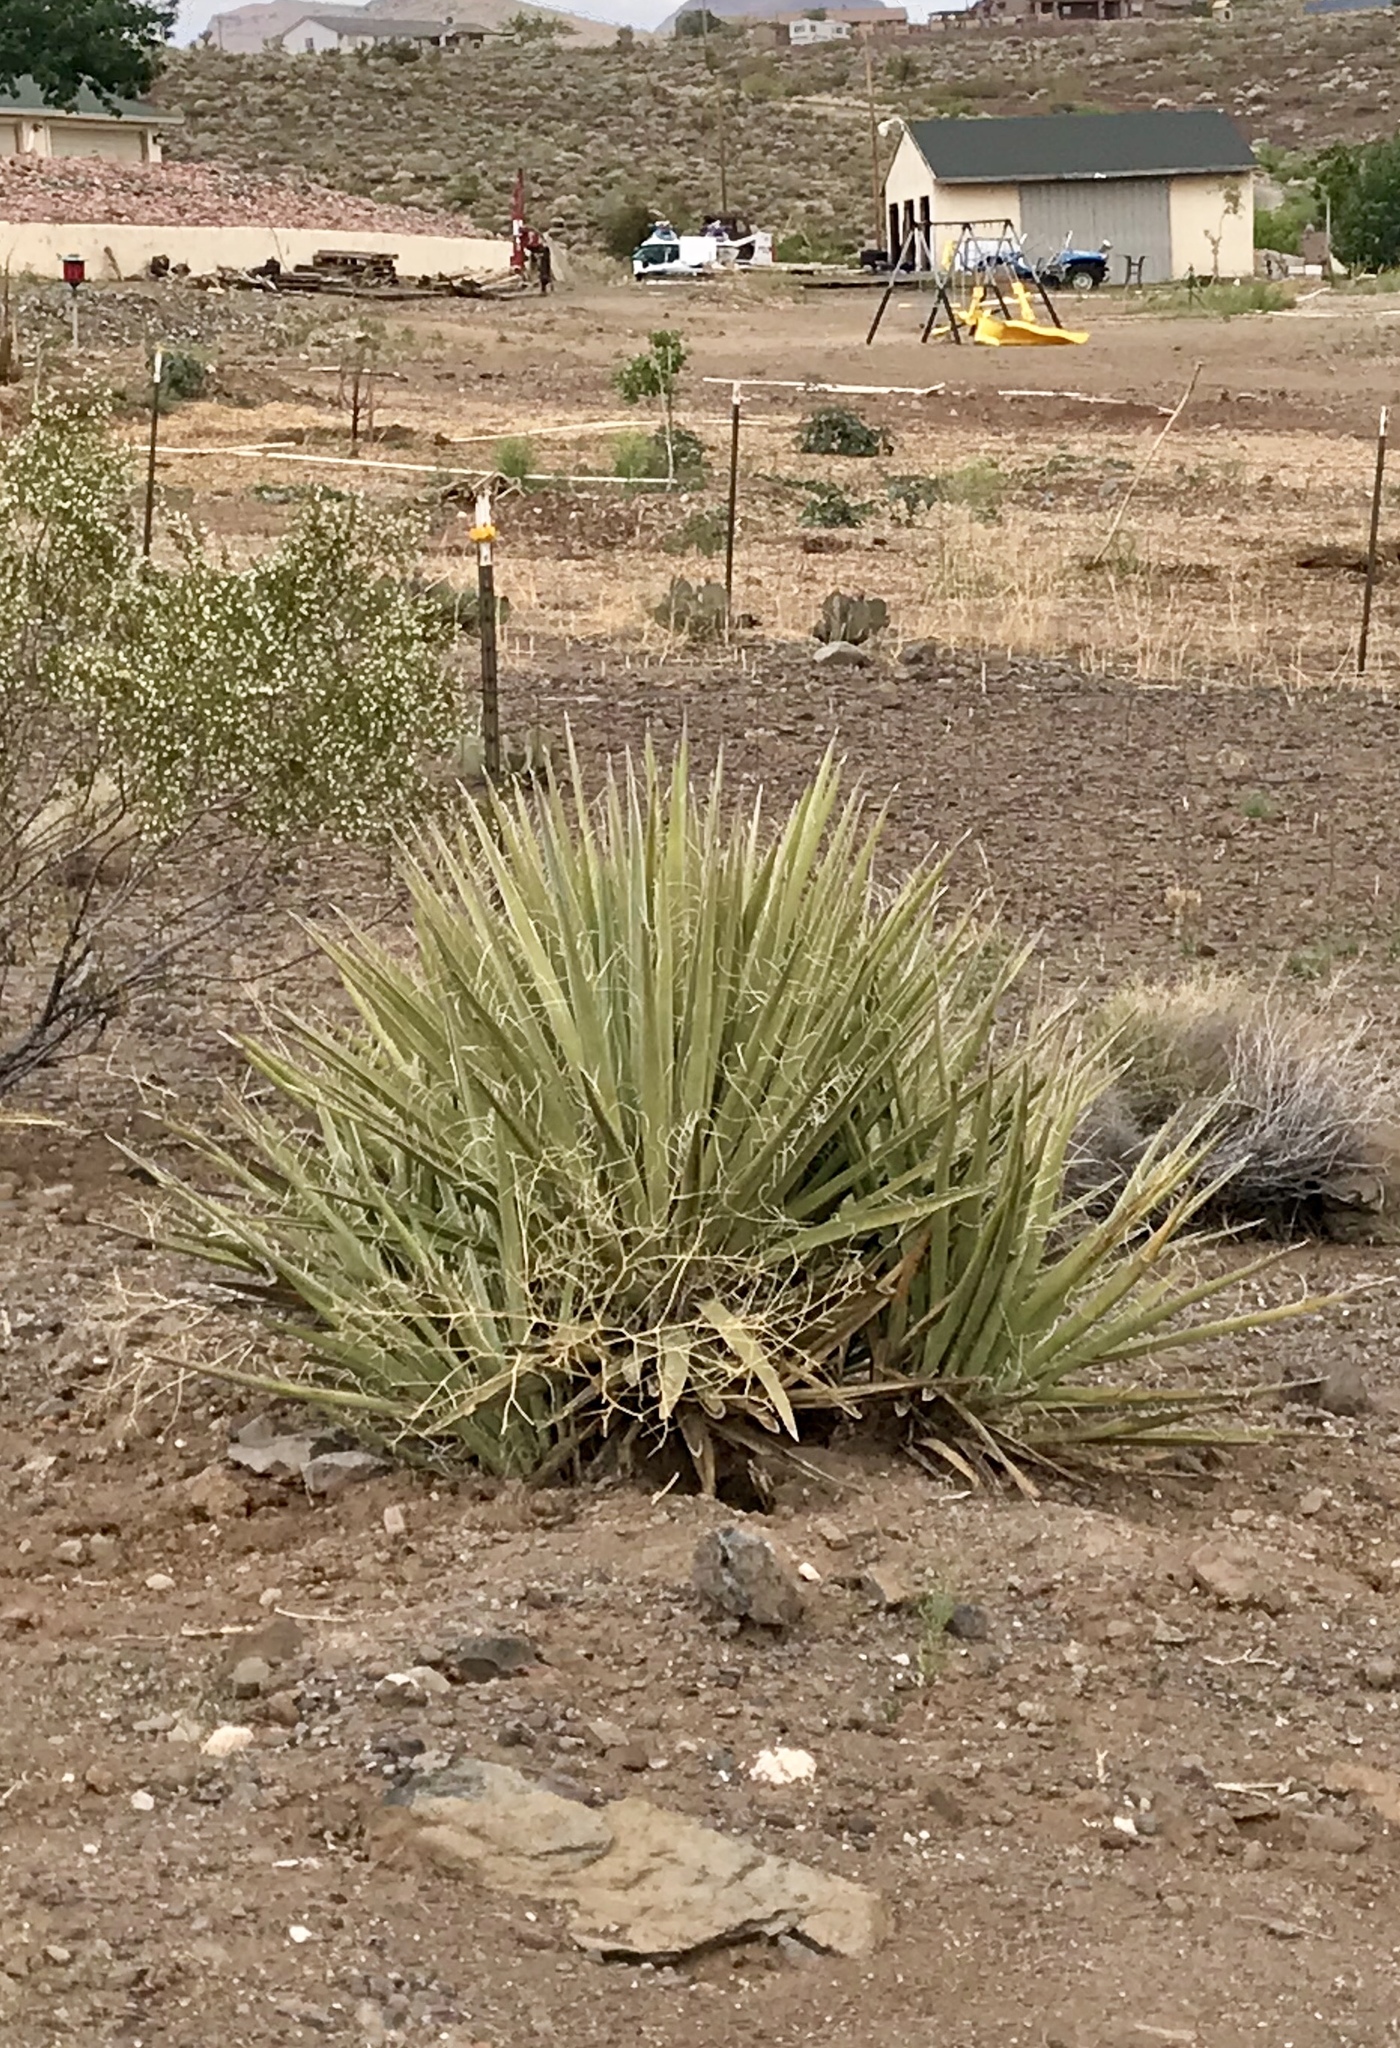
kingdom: Plantae
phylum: Tracheophyta
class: Liliopsida
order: Asparagales
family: Asparagaceae
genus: Yucca
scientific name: Yucca baccata
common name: Banana yucca
